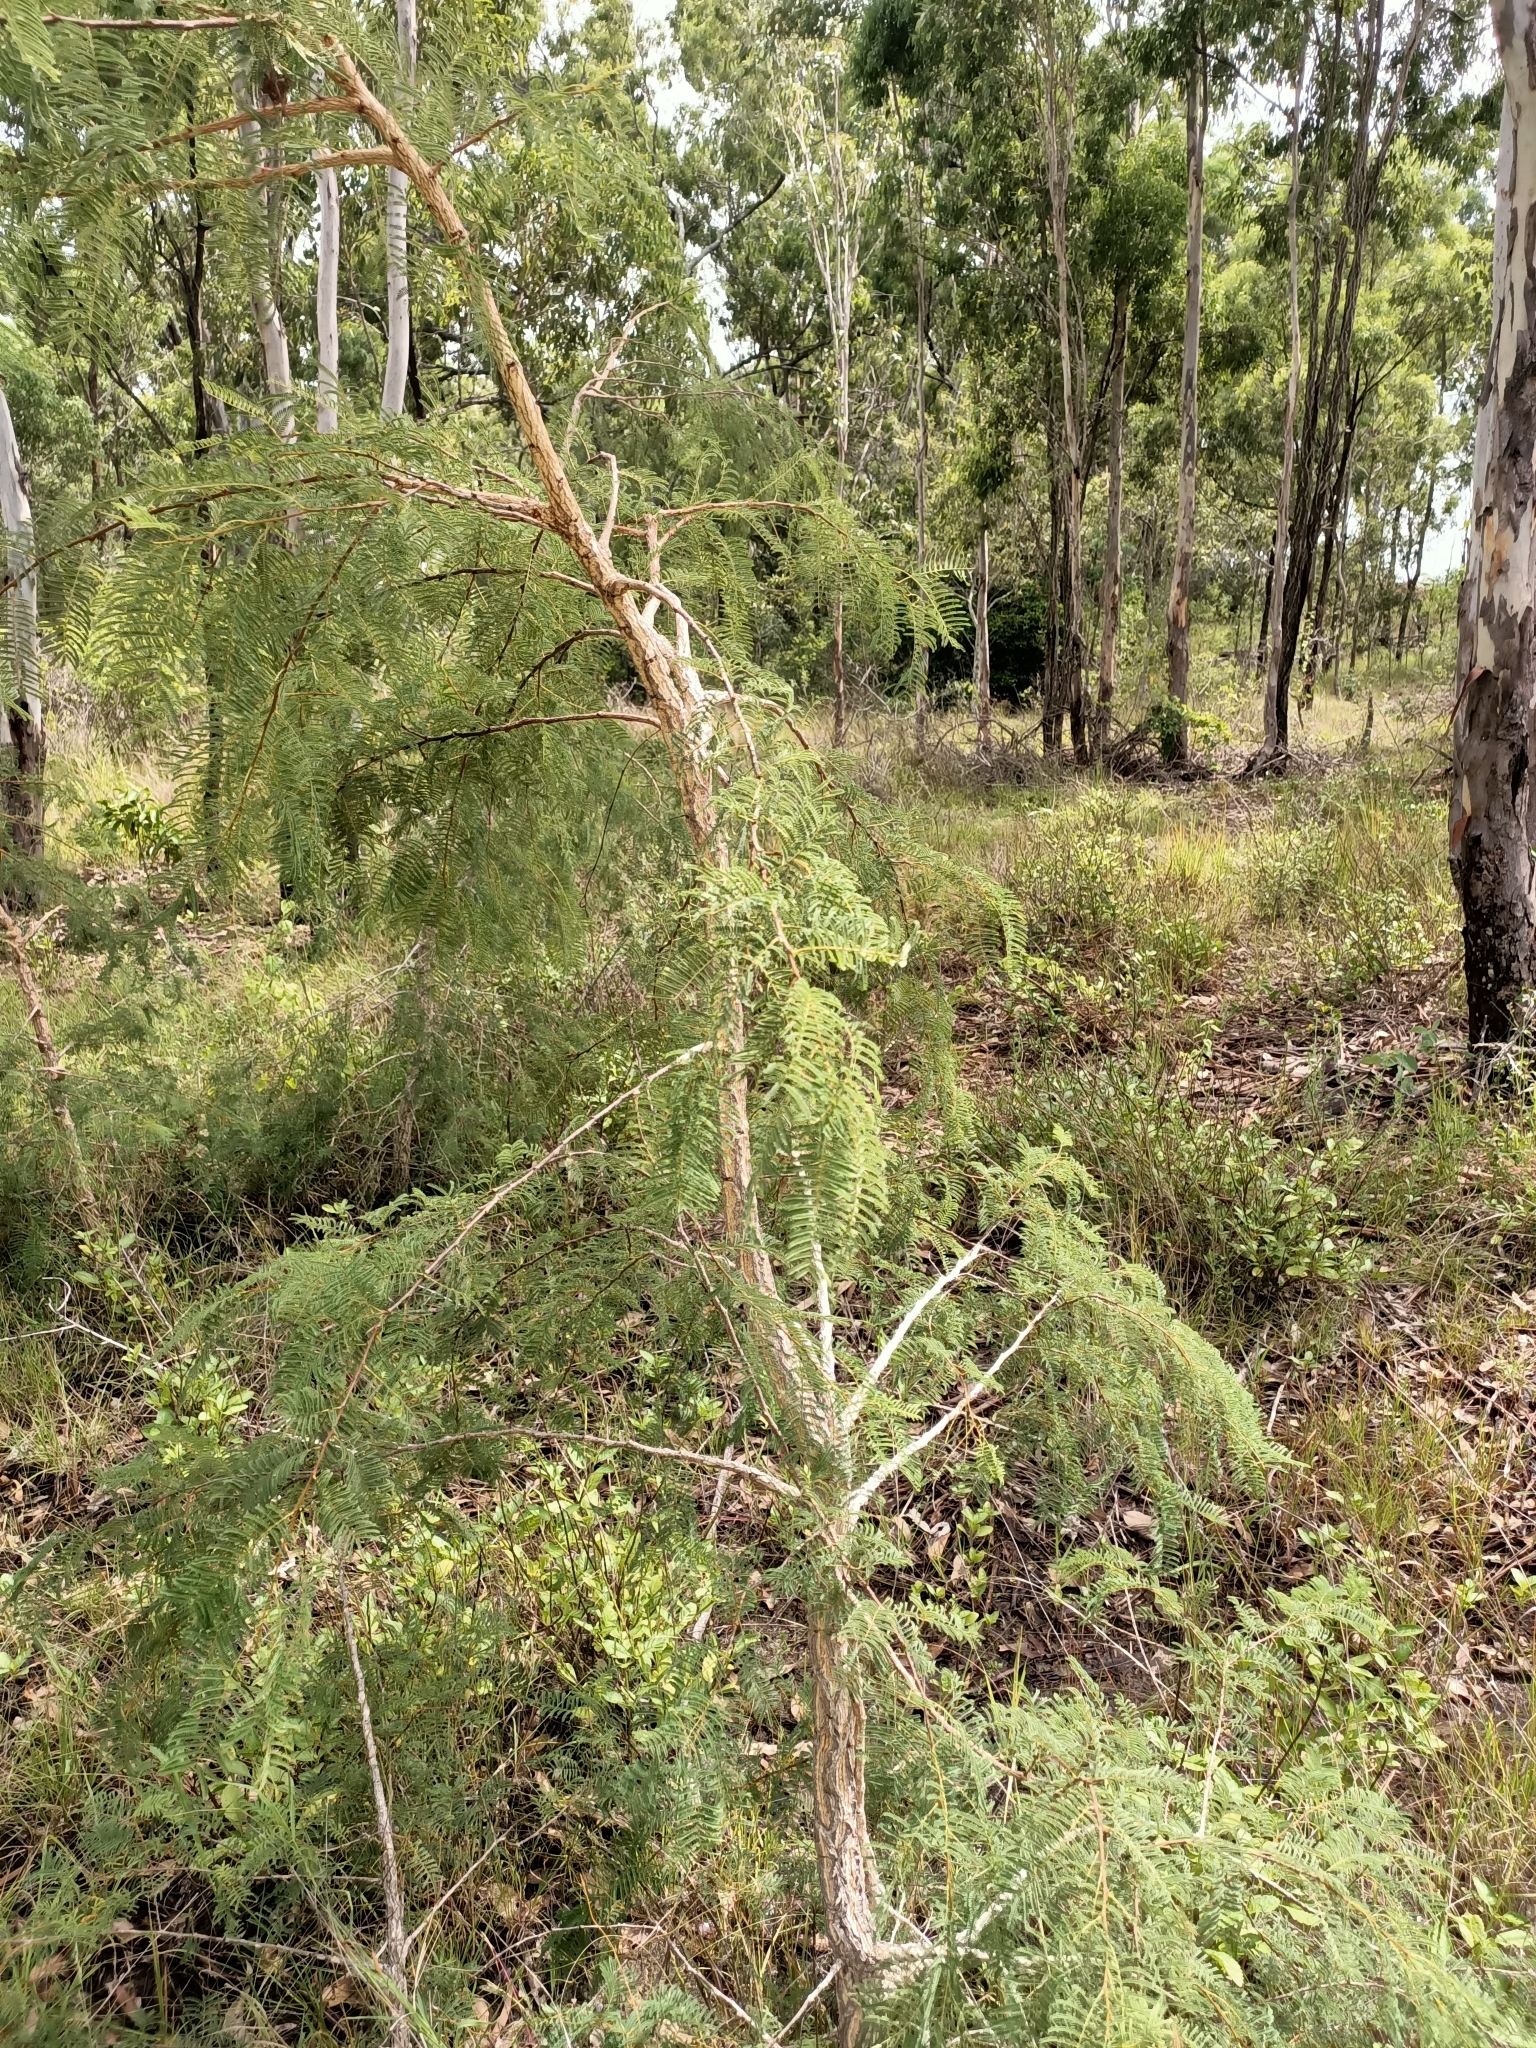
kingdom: Plantae
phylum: Tracheophyta
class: Magnoliopsida
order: Fabales
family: Fabaceae
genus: Vachellia
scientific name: Vachellia bidwillii
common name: Corkwood wattle
